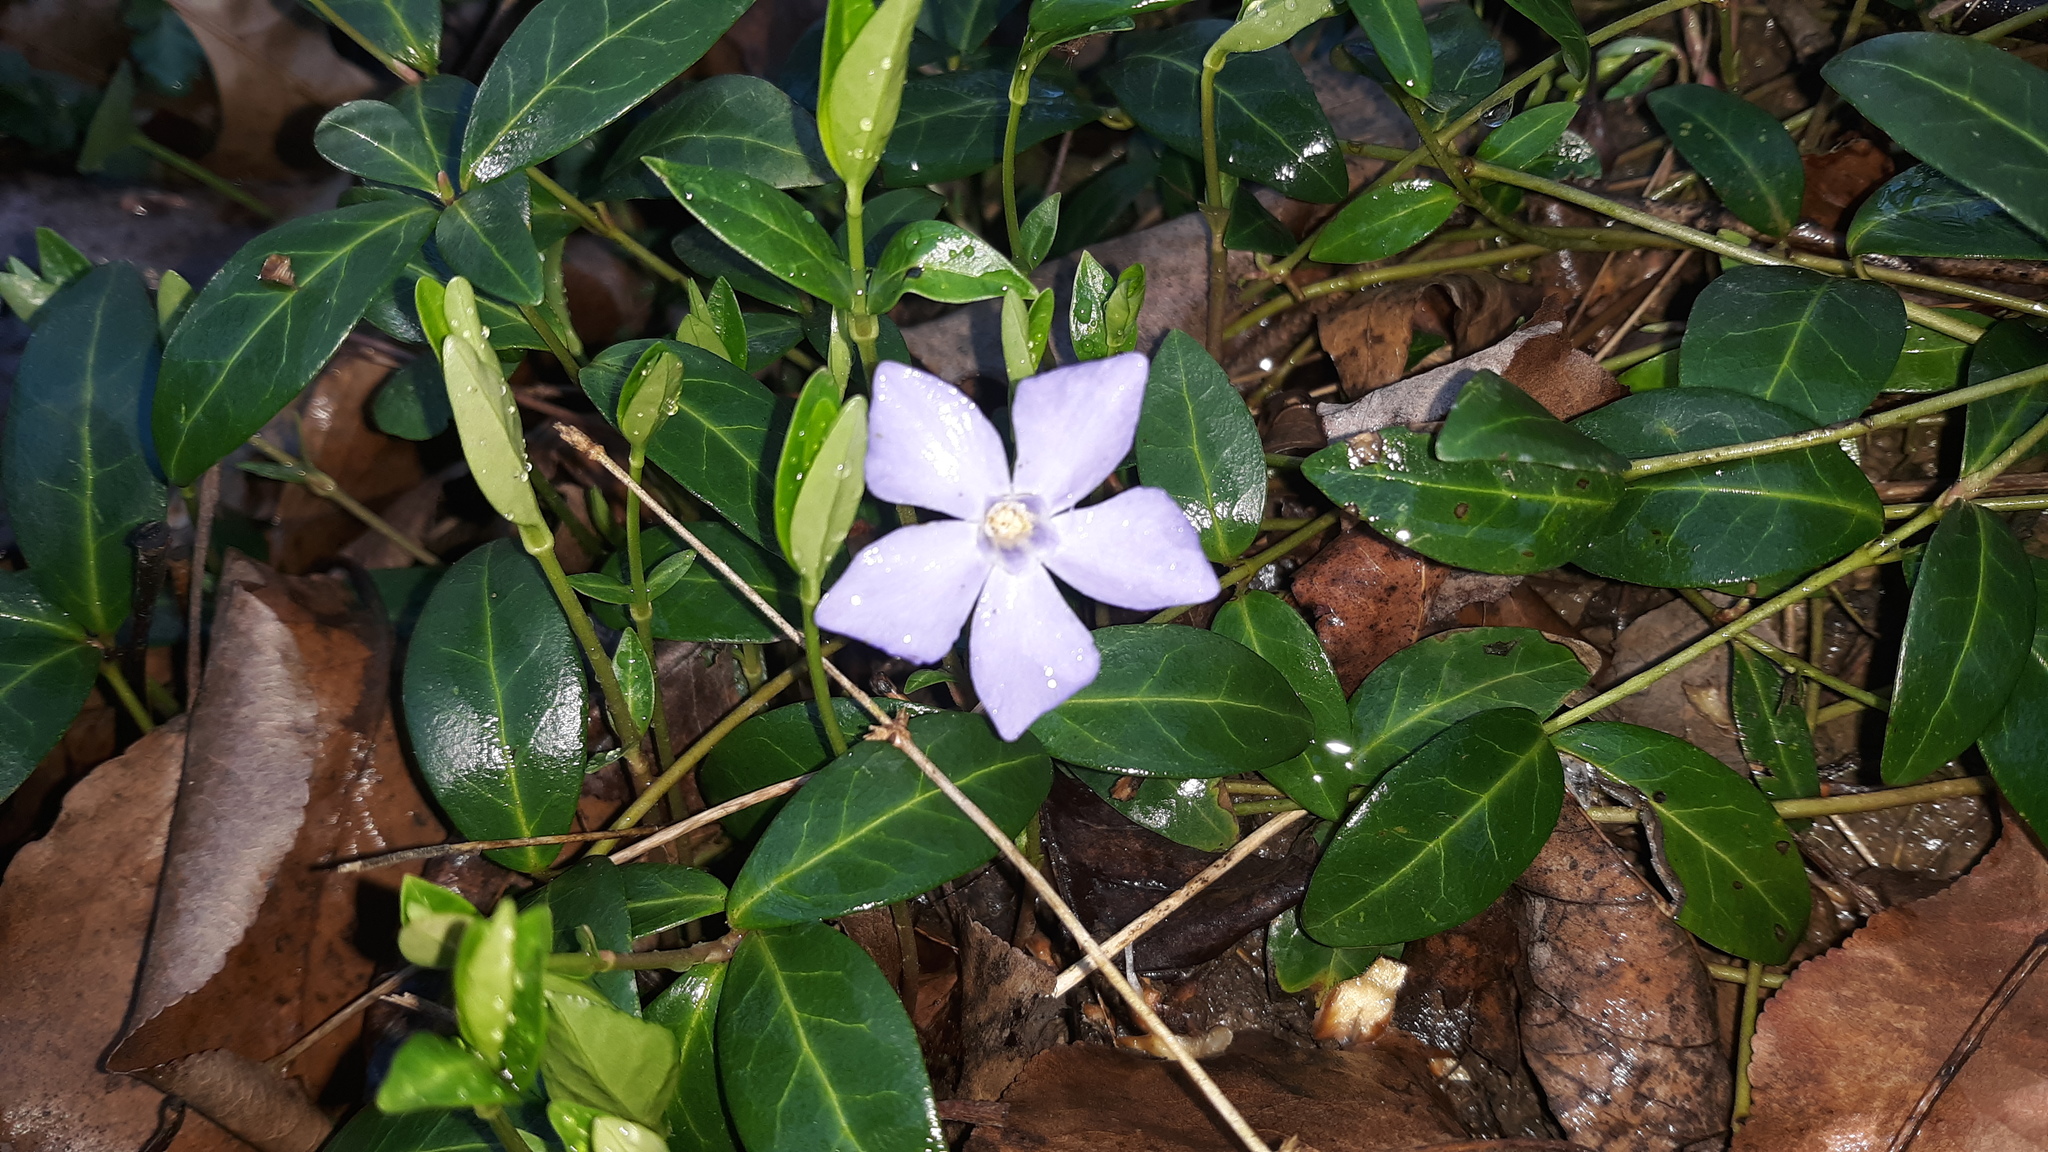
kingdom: Plantae
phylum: Tracheophyta
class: Magnoliopsida
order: Gentianales
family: Apocynaceae
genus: Vinca
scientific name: Vinca minor
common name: Lesser periwinkle
